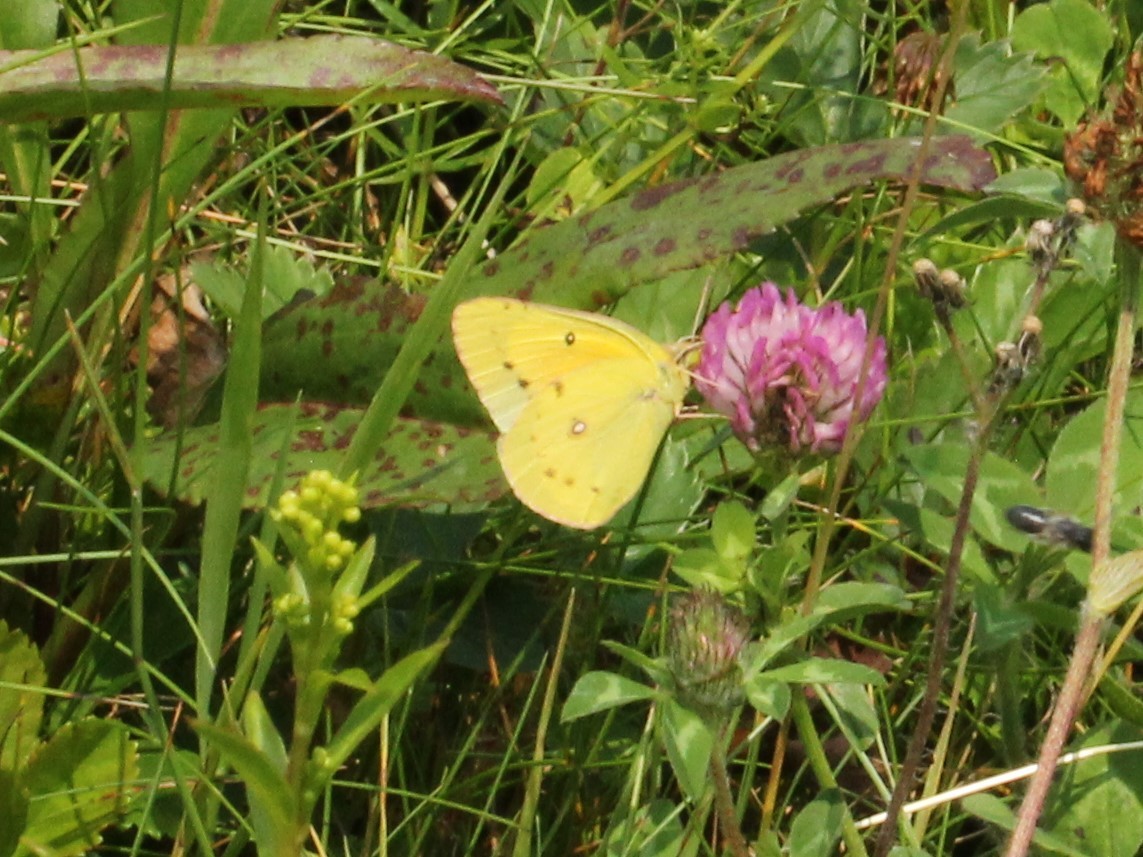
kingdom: Animalia
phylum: Arthropoda
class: Insecta
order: Lepidoptera
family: Pieridae
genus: Colias
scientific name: Colias eurytheme
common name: Alfalfa butterfly
